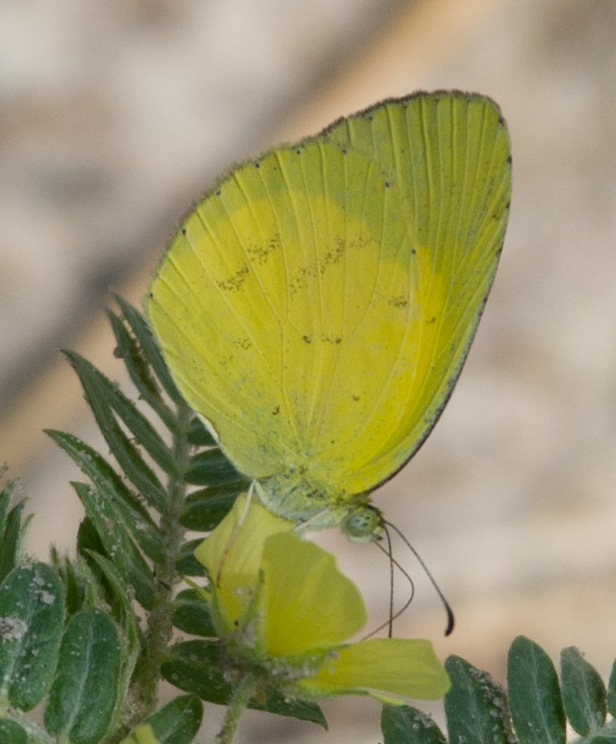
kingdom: Animalia
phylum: Arthropoda
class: Insecta
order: Lepidoptera
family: Pieridae
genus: Eurema
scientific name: Eurema brigitta
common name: Small grass yellow
